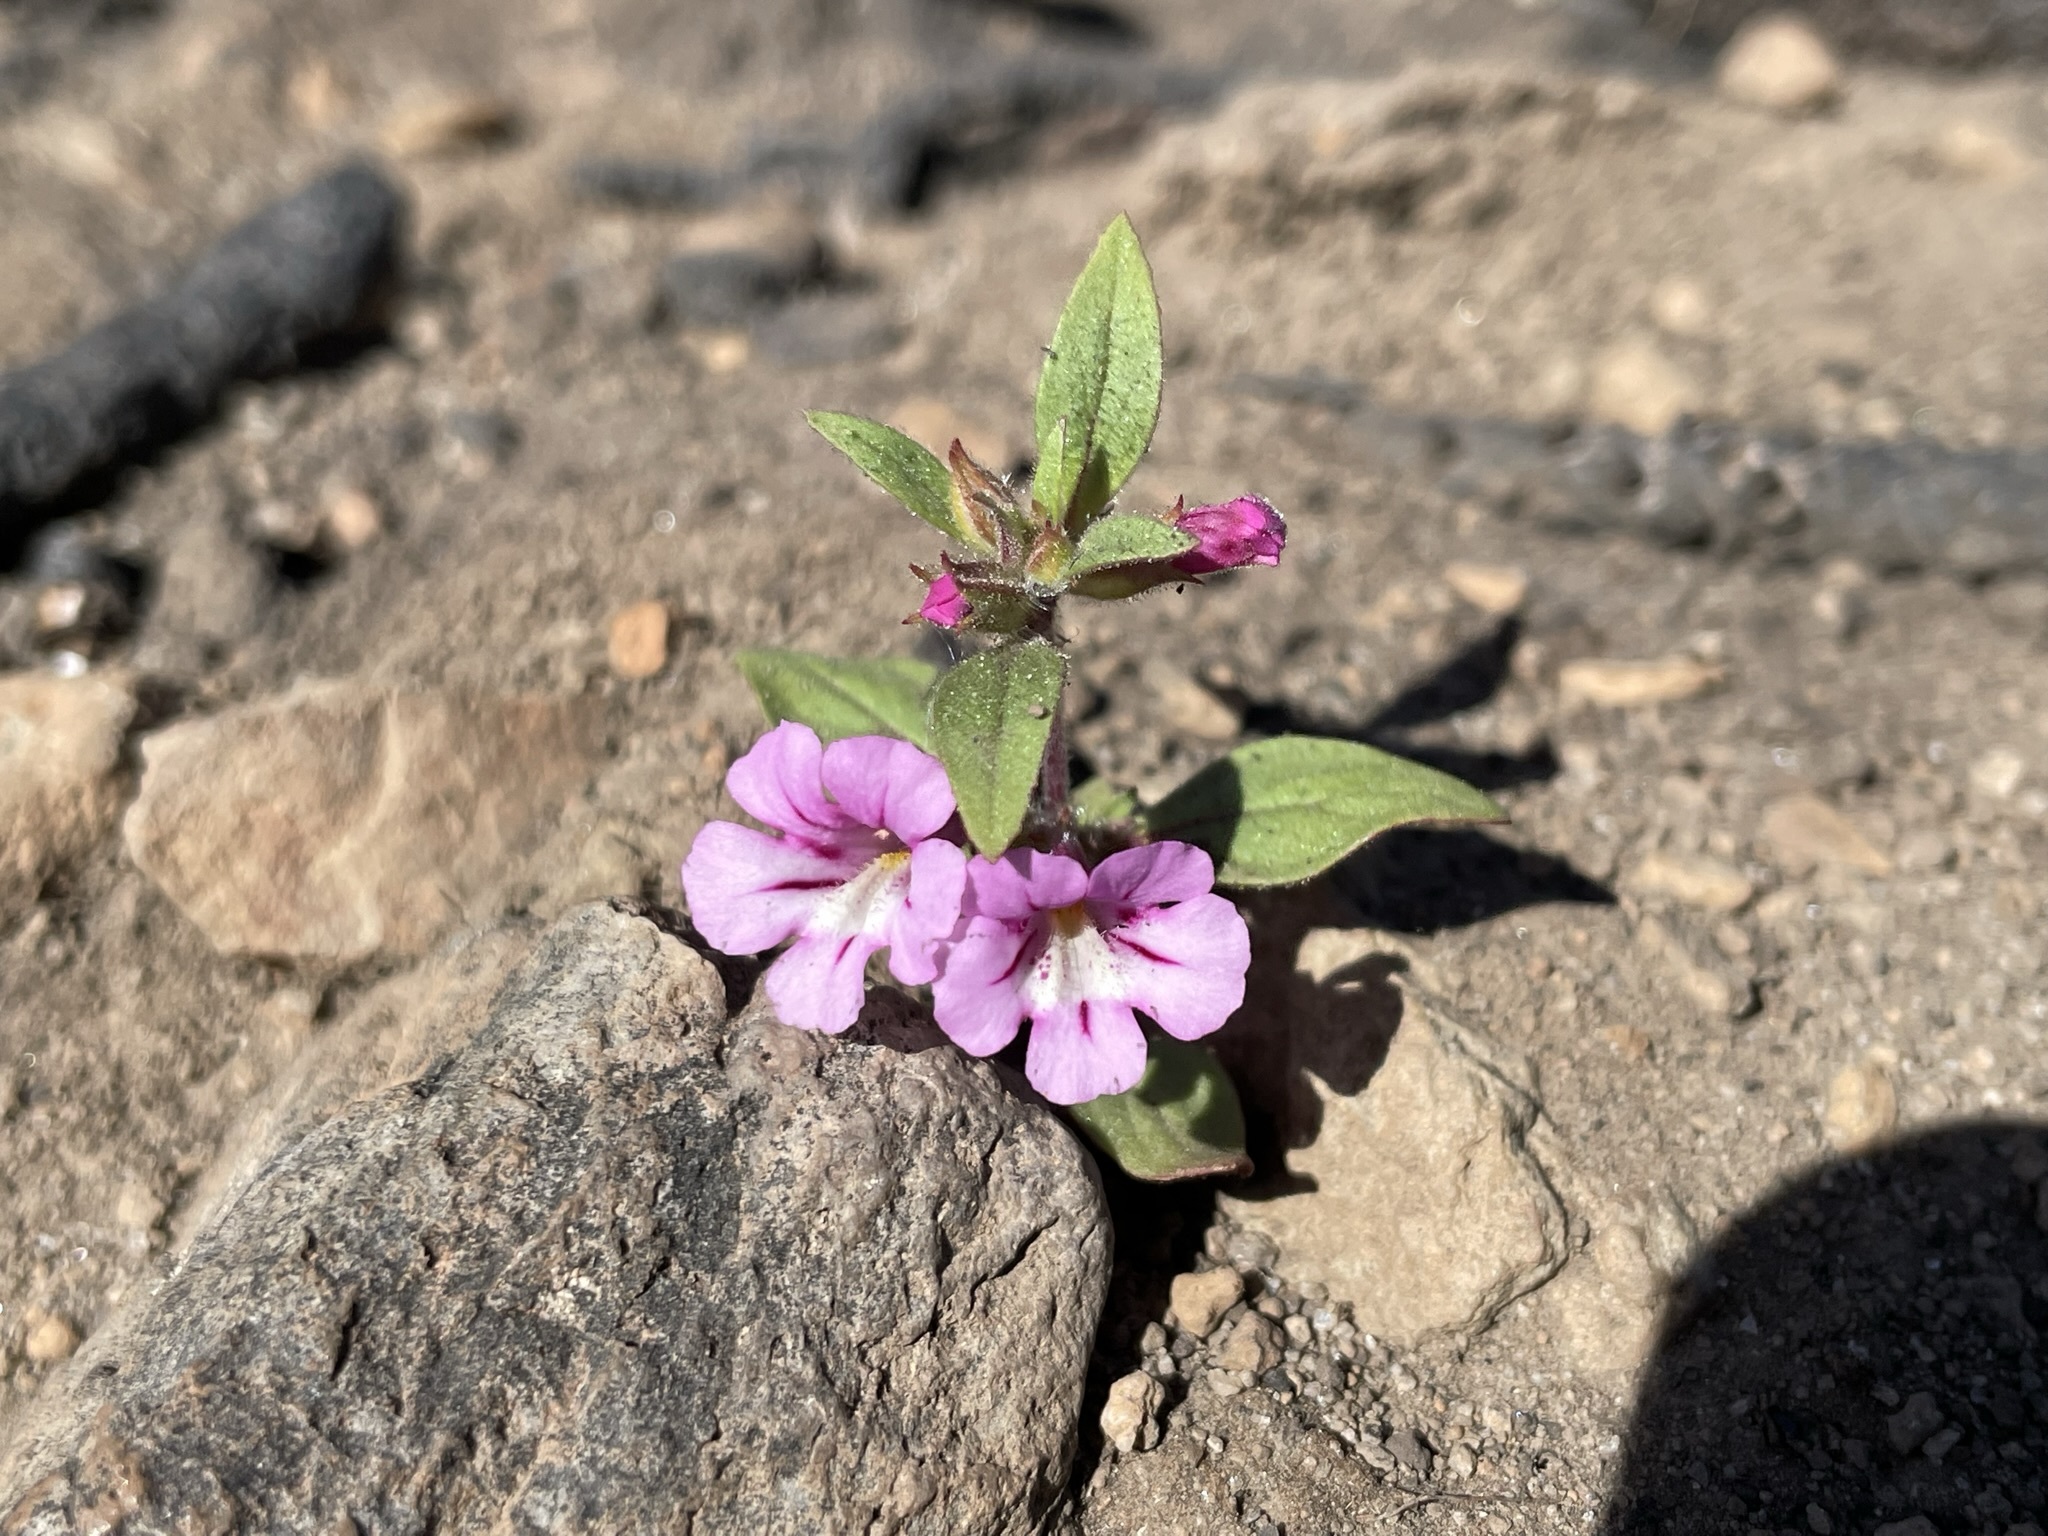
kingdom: Plantae
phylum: Tracheophyta
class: Magnoliopsida
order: Lamiales
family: Phrymaceae
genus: Diplacus
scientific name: Diplacus layneae
